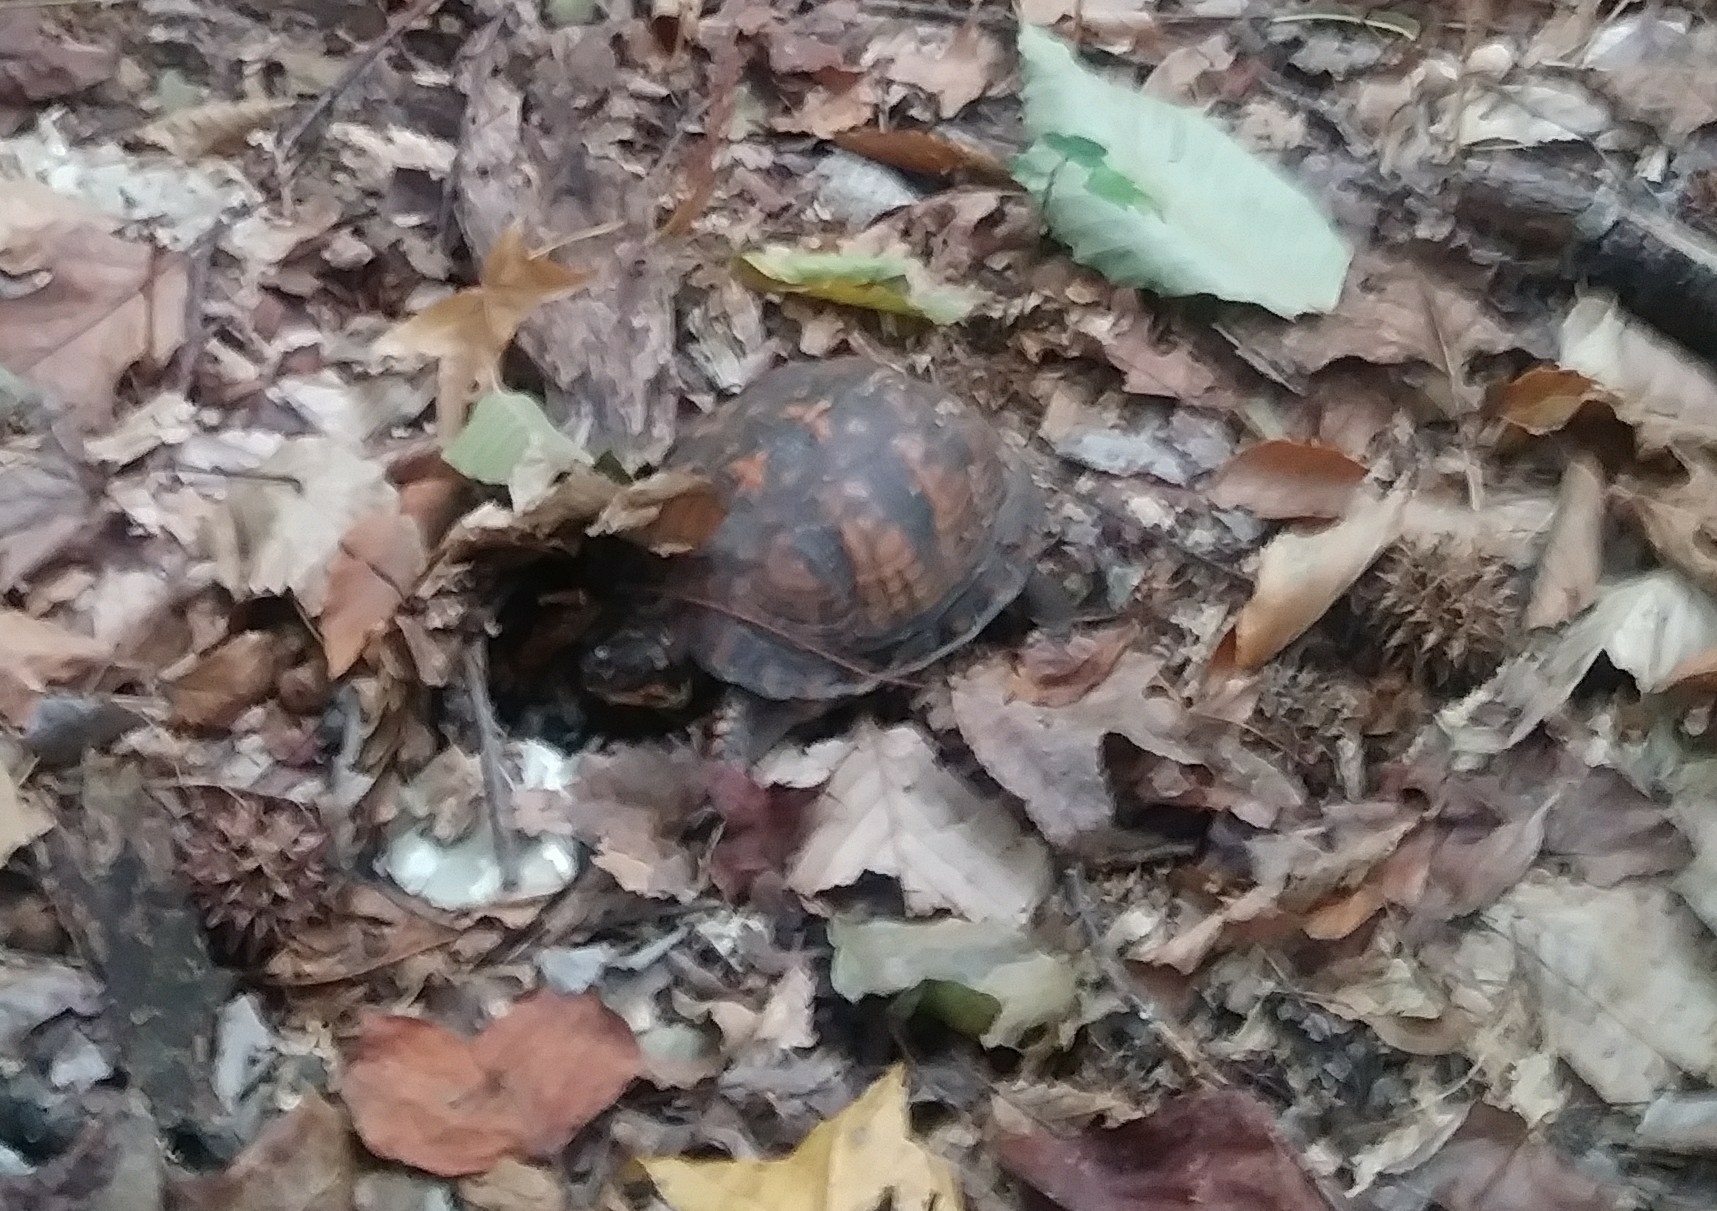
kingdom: Animalia
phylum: Chordata
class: Testudines
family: Emydidae
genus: Terrapene
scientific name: Terrapene carolina
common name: Common box turtle
